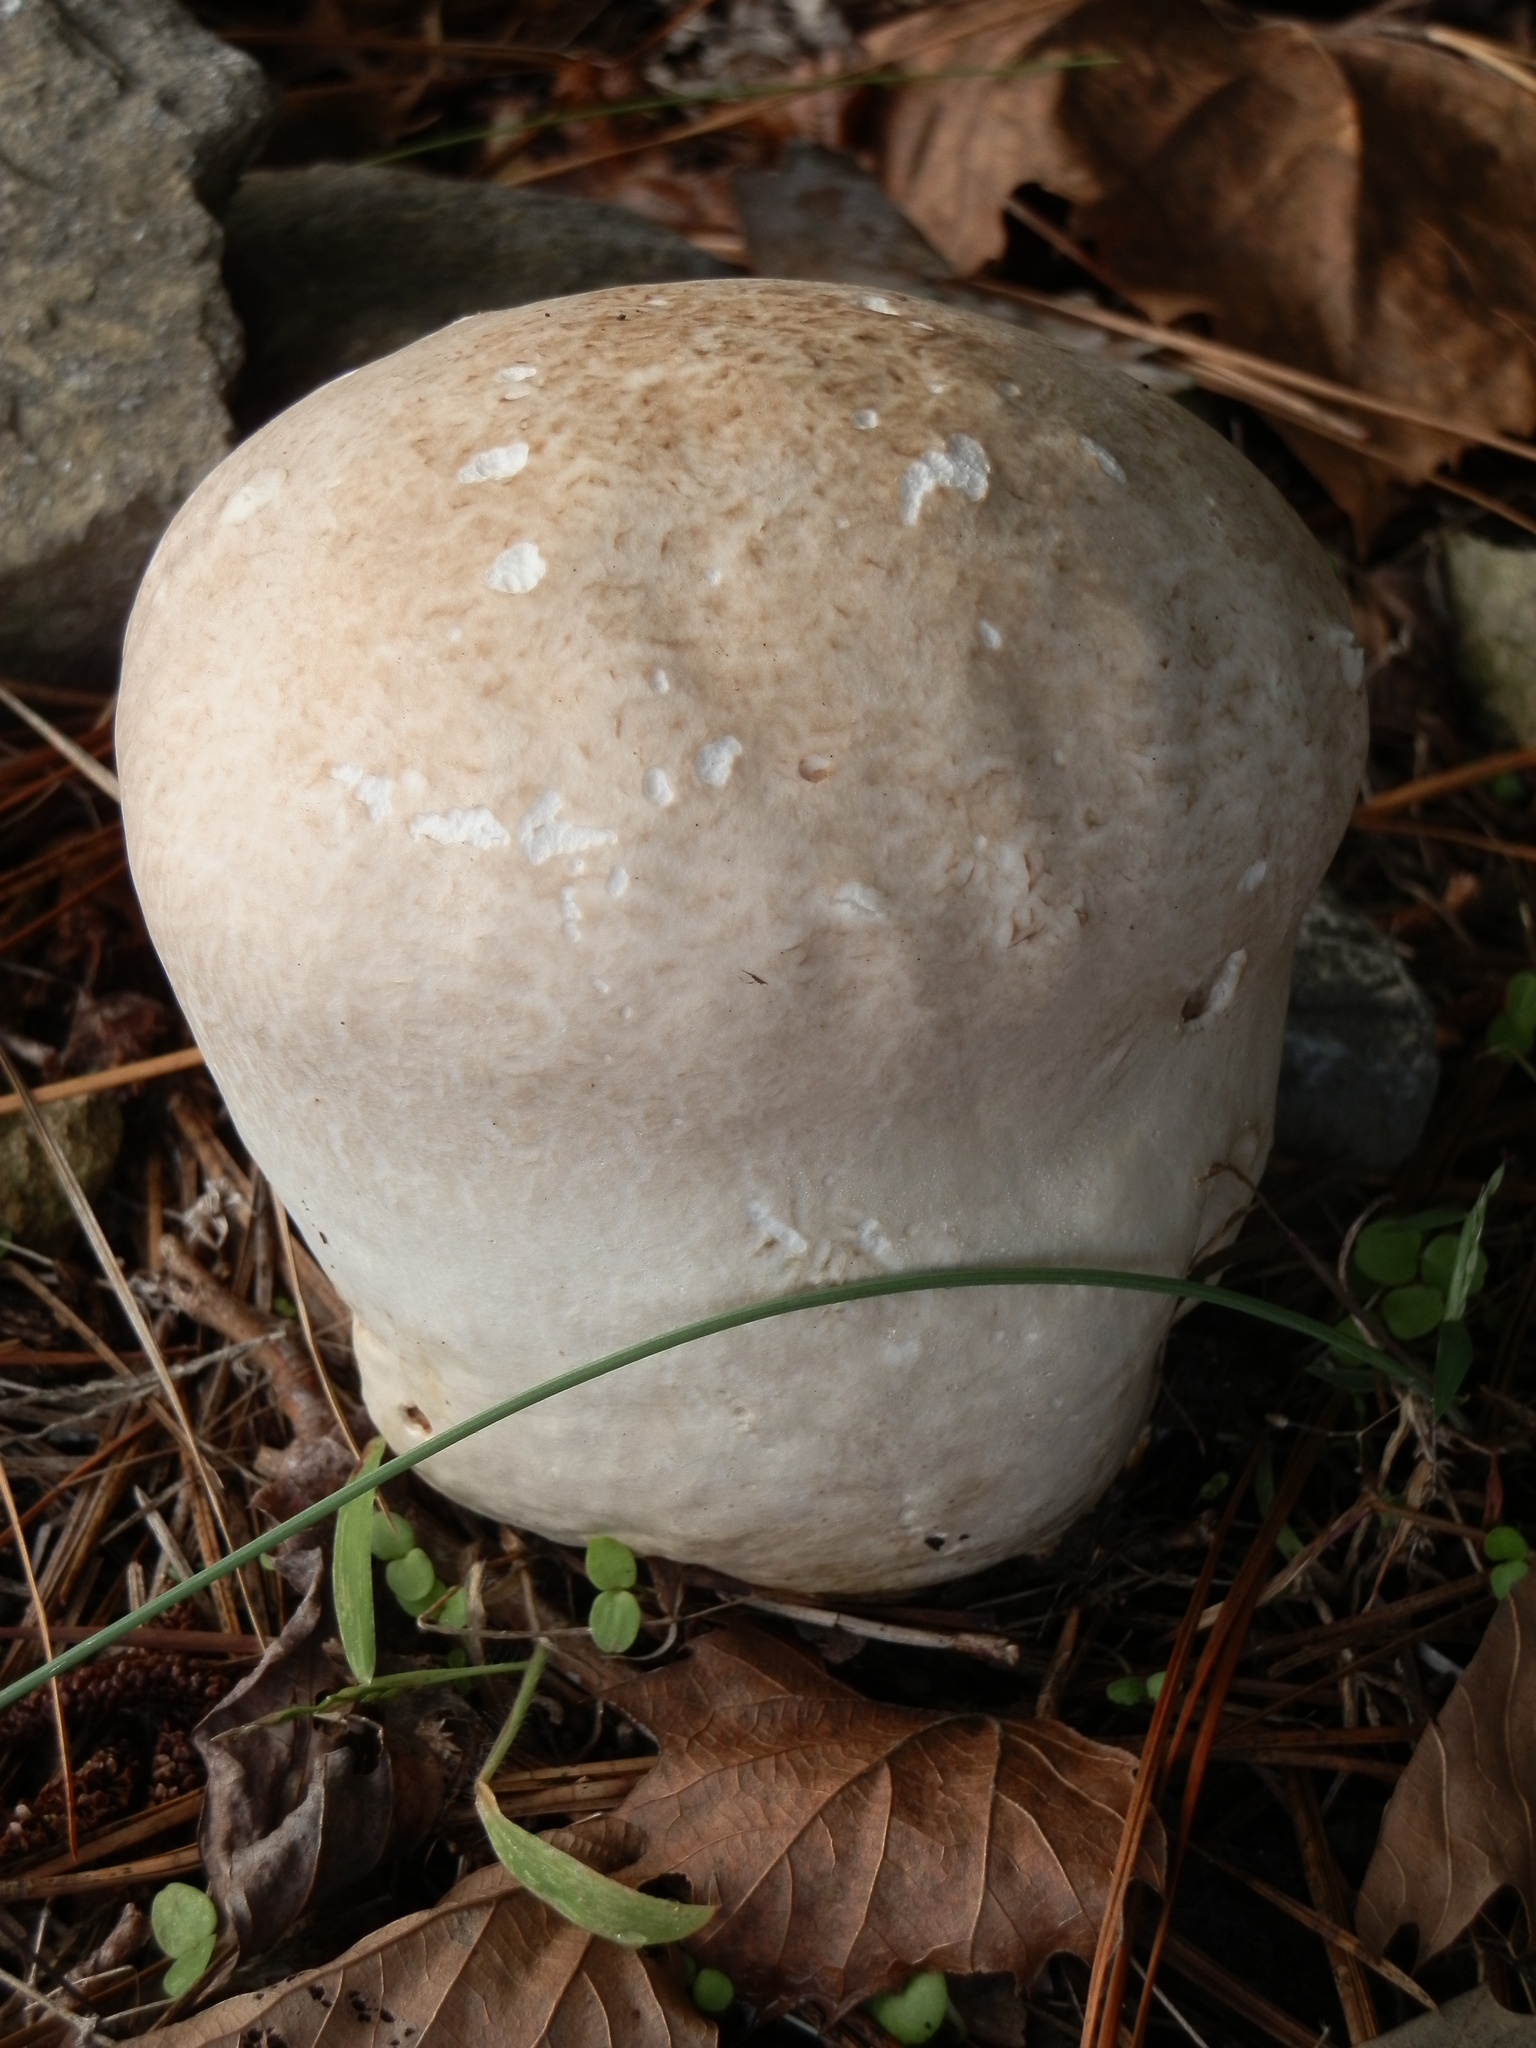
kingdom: Fungi
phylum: Basidiomycota
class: Agaricomycetes
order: Agaricales
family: Lycoperdaceae
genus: Bovistella
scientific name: Bovistella utriformis
